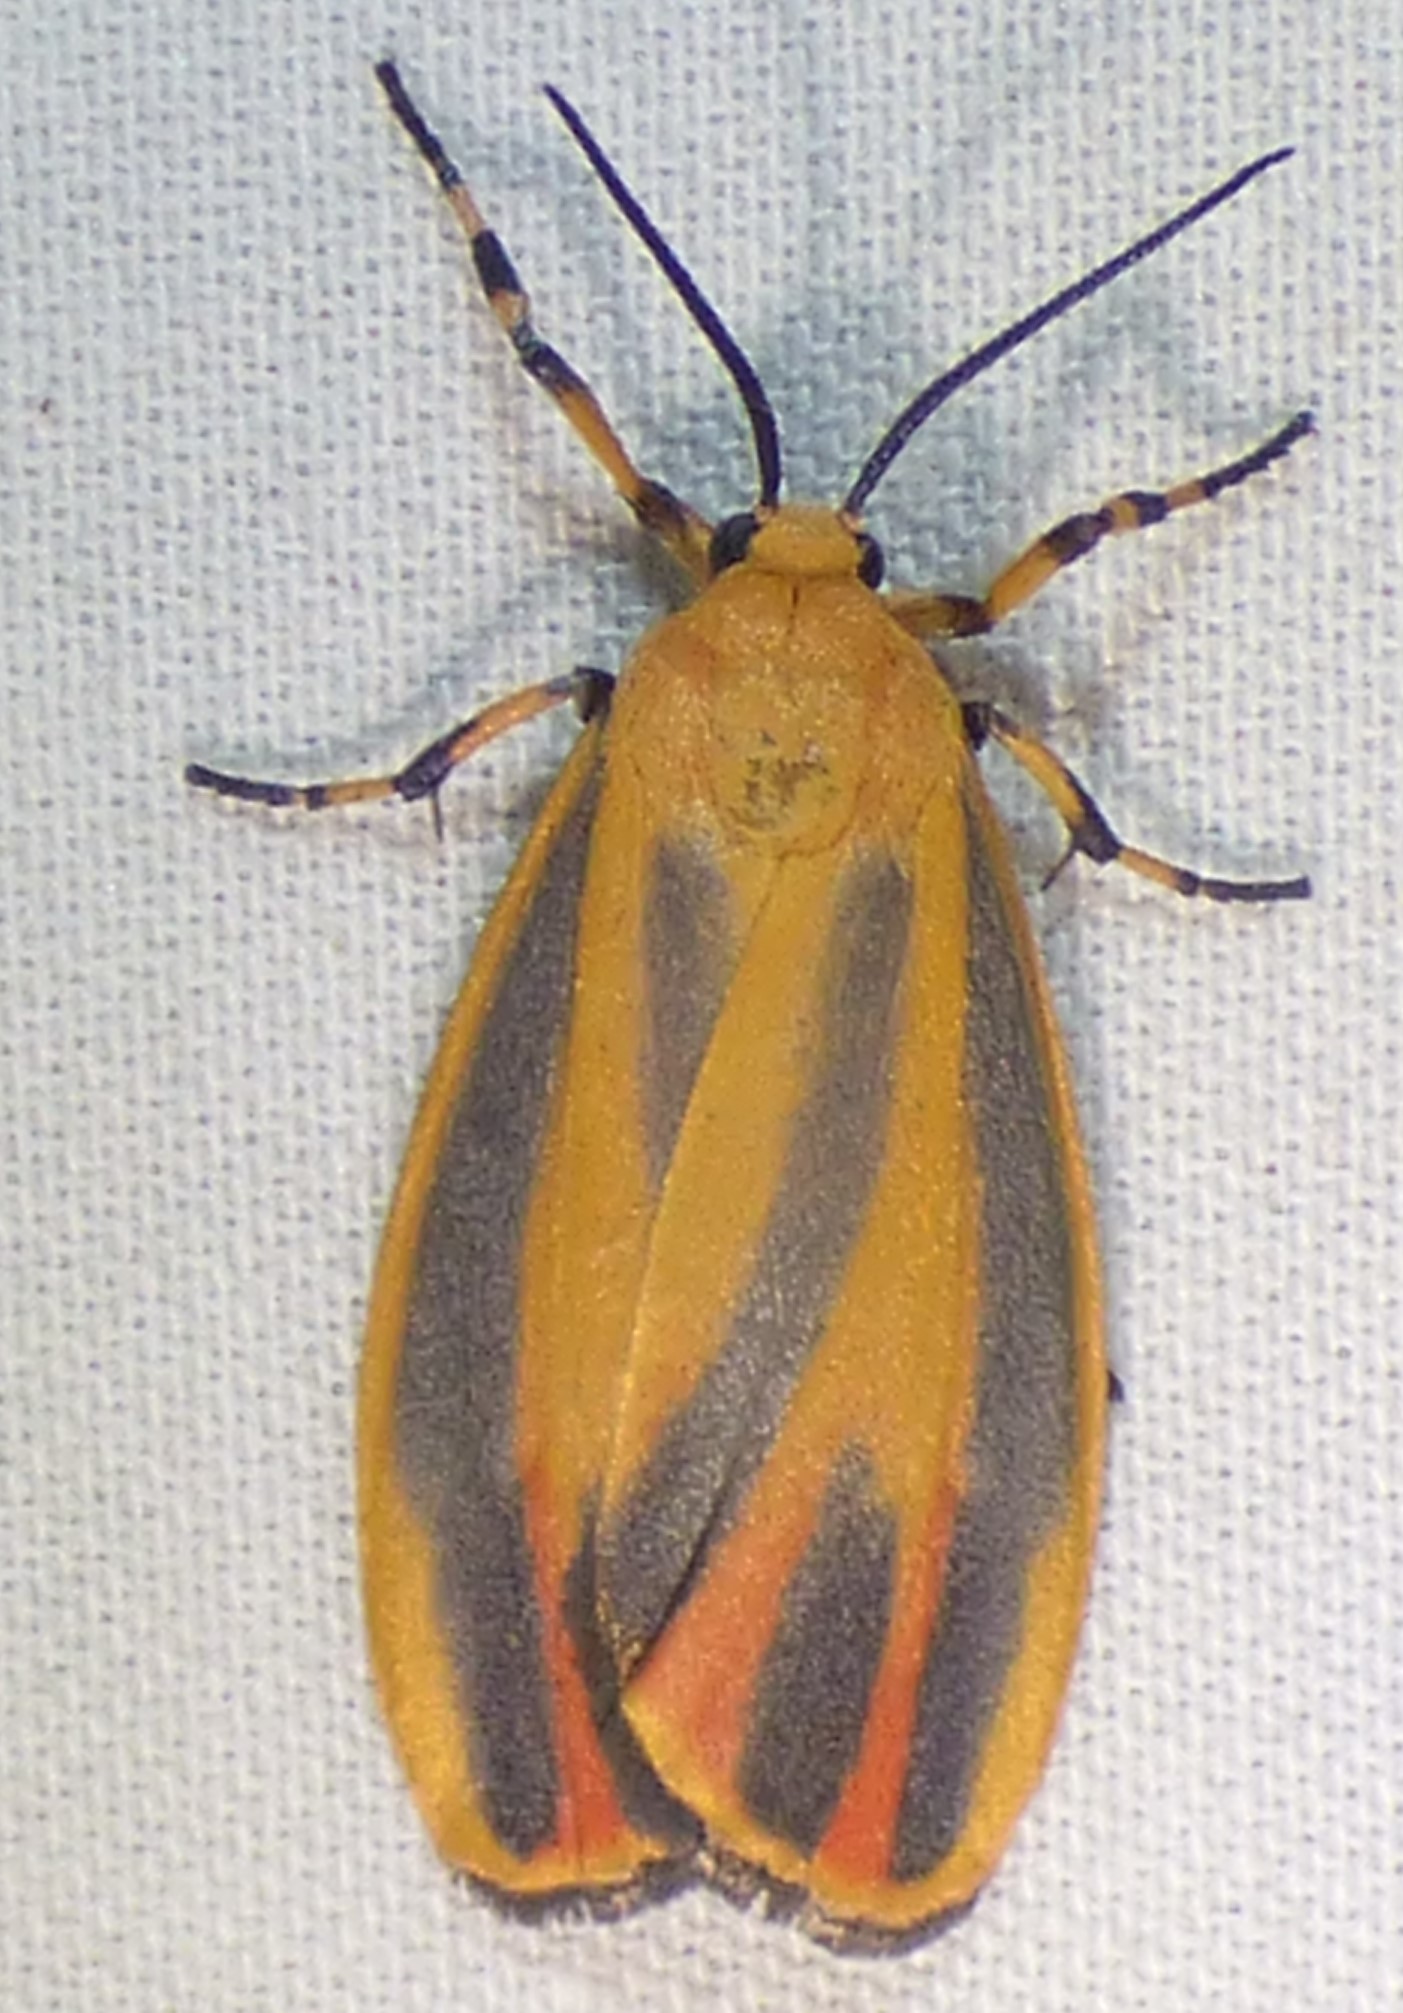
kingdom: Animalia
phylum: Arthropoda
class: Insecta
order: Lepidoptera
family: Erebidae
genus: Hypoprepia
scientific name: Hypoprepia fucosa
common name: Painted lichen moth
